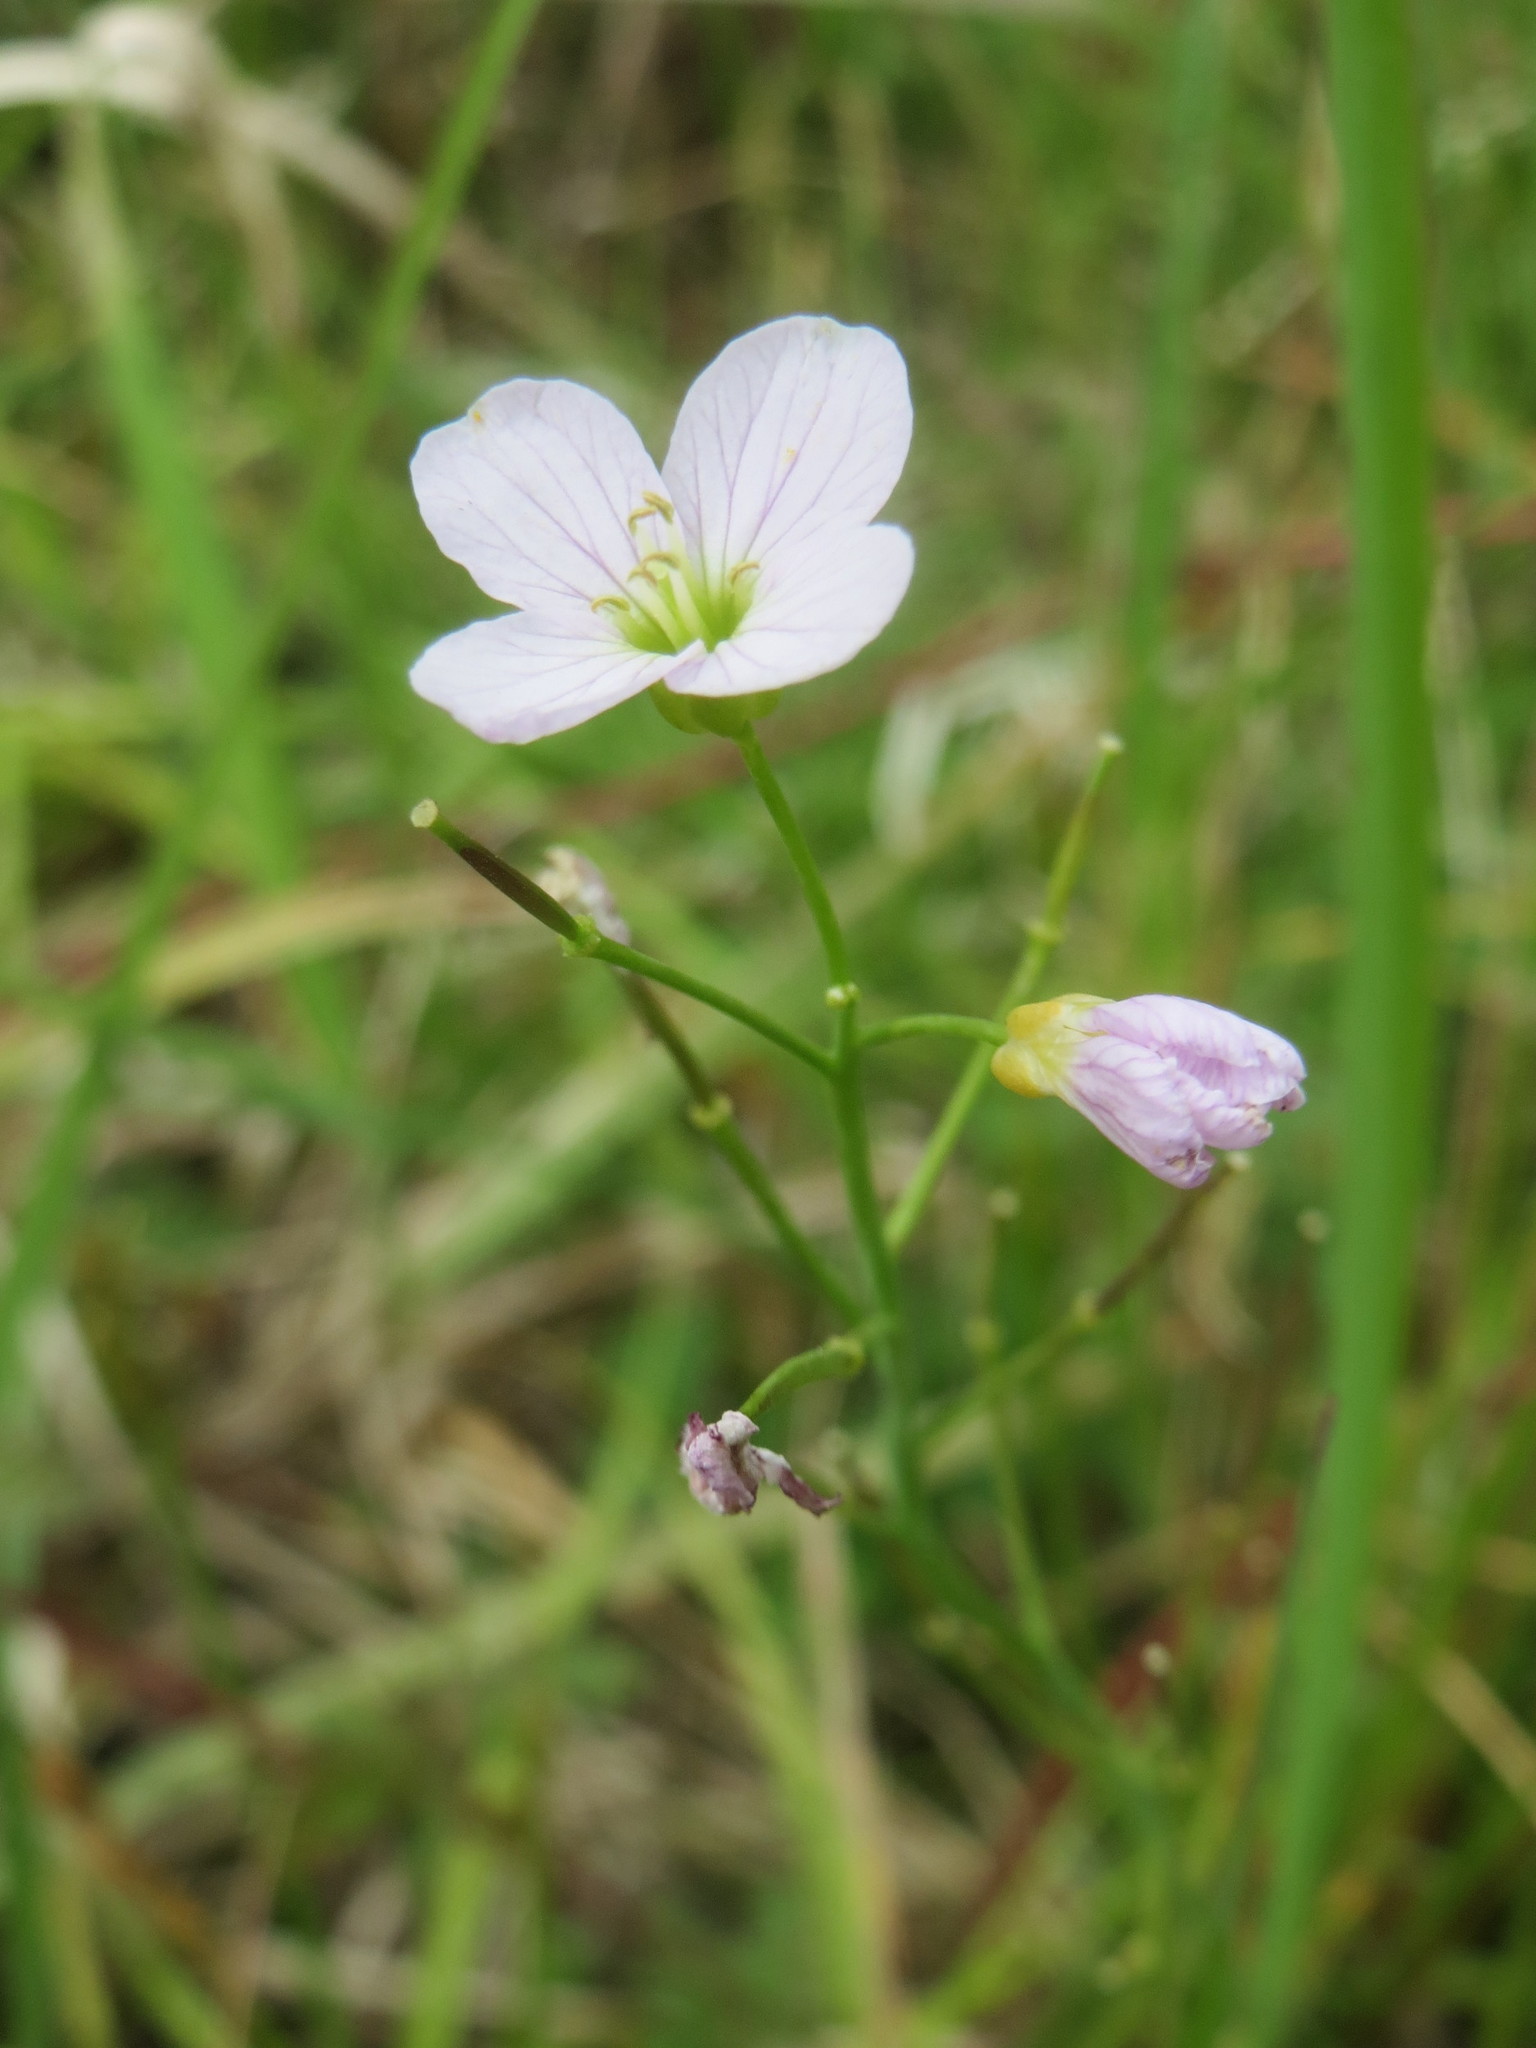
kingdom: Plantae
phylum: Tracheophyta
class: Magnoliopsida
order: Brassicales
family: Brassicaceae
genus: Cardamine
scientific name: Cardamine pratensis
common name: Cuckoo flower
